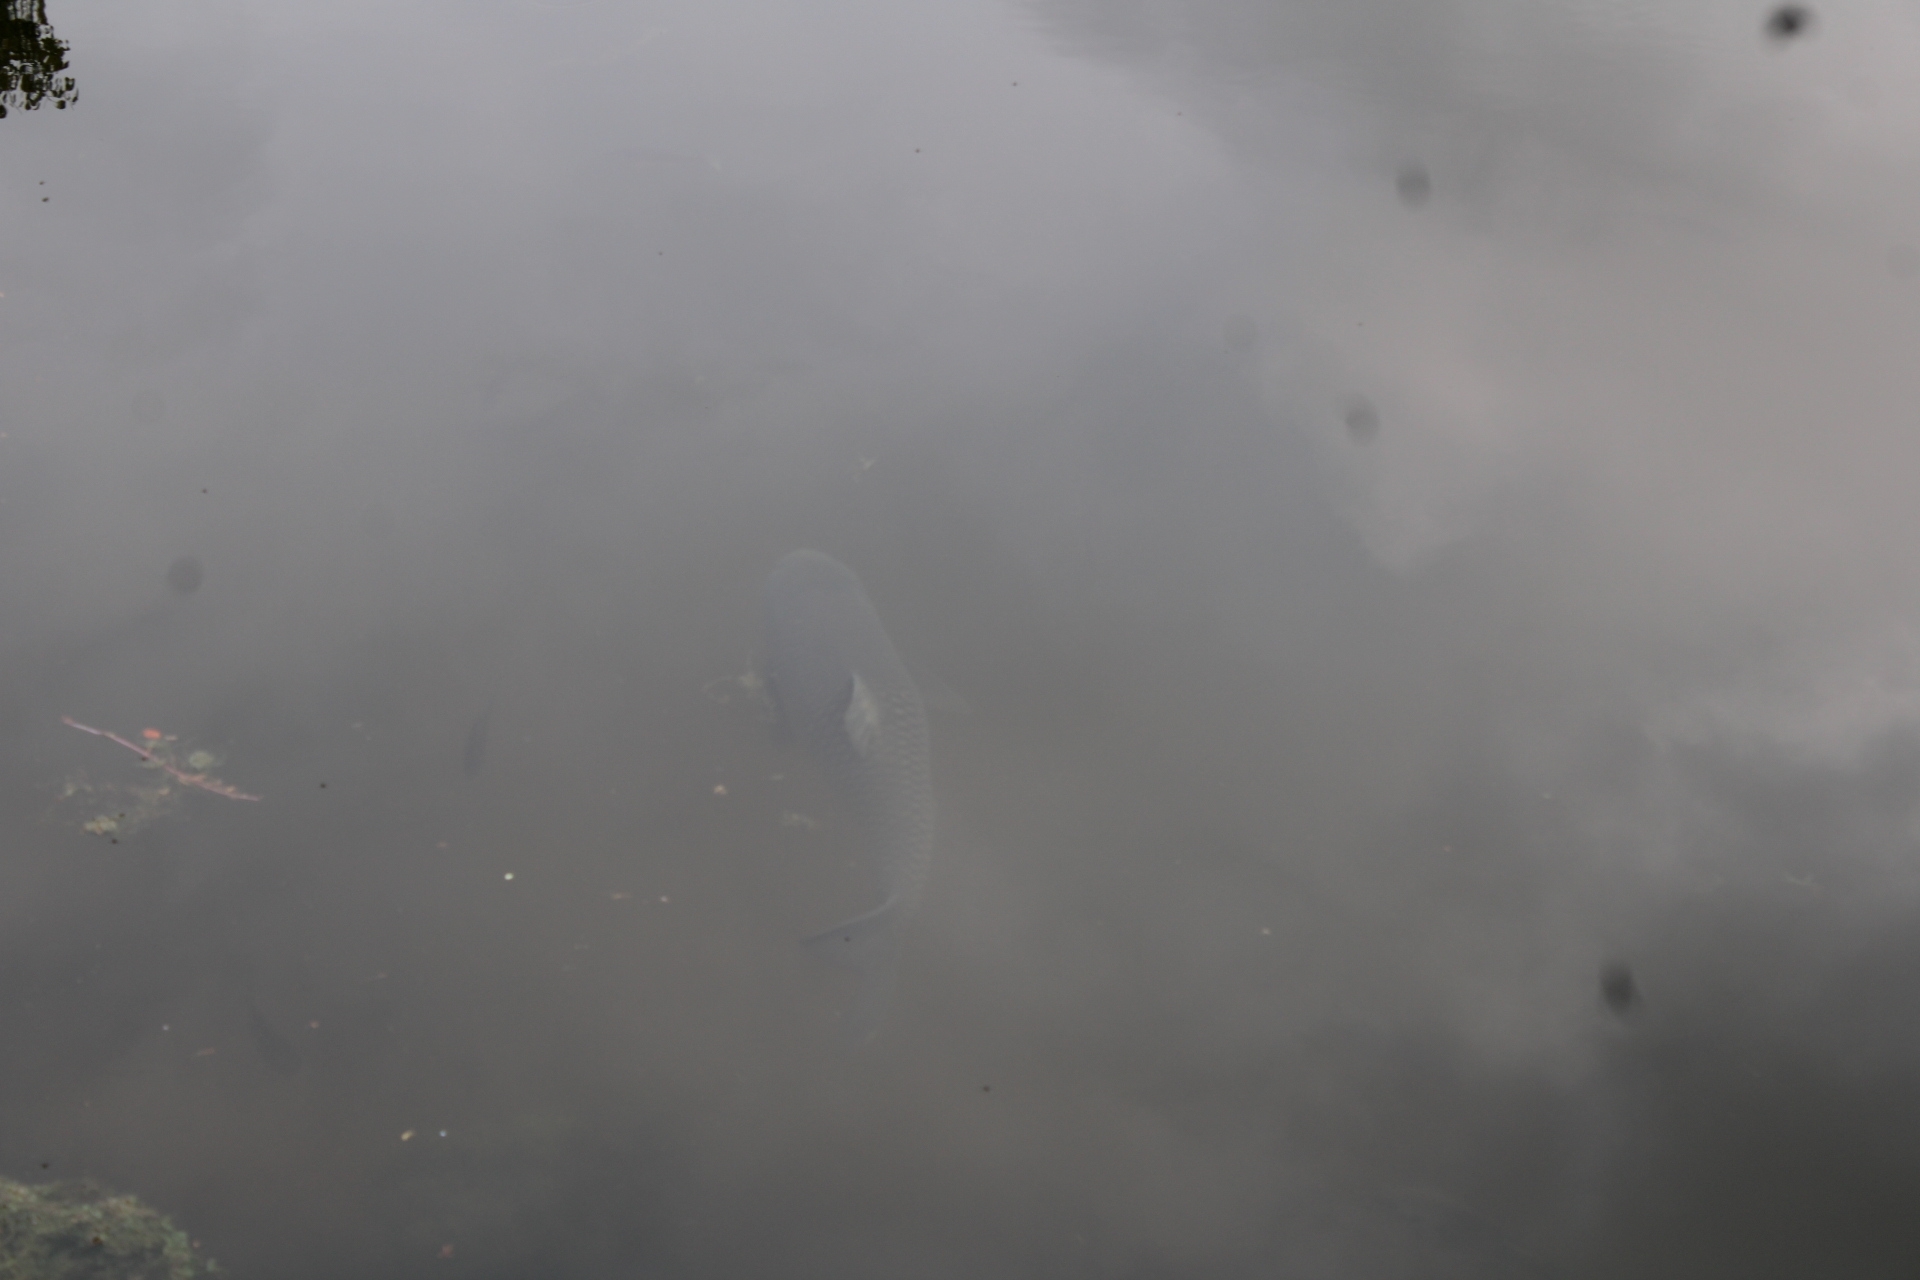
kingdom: Animalia
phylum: Chordata
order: Cypriniformes
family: Cyprinidae
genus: Ctenopharyngodon
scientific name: Ctenopharyngodon idella
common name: Grass carp
